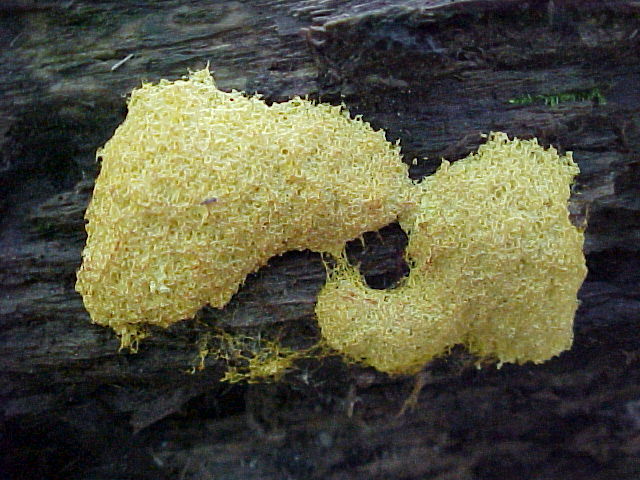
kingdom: Protozoa
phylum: Mycetozoa
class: Myxomycetes
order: Physarales
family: Physaraceae
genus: Fuligo
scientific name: Fuligo septica
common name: Dog vomit slime mold
